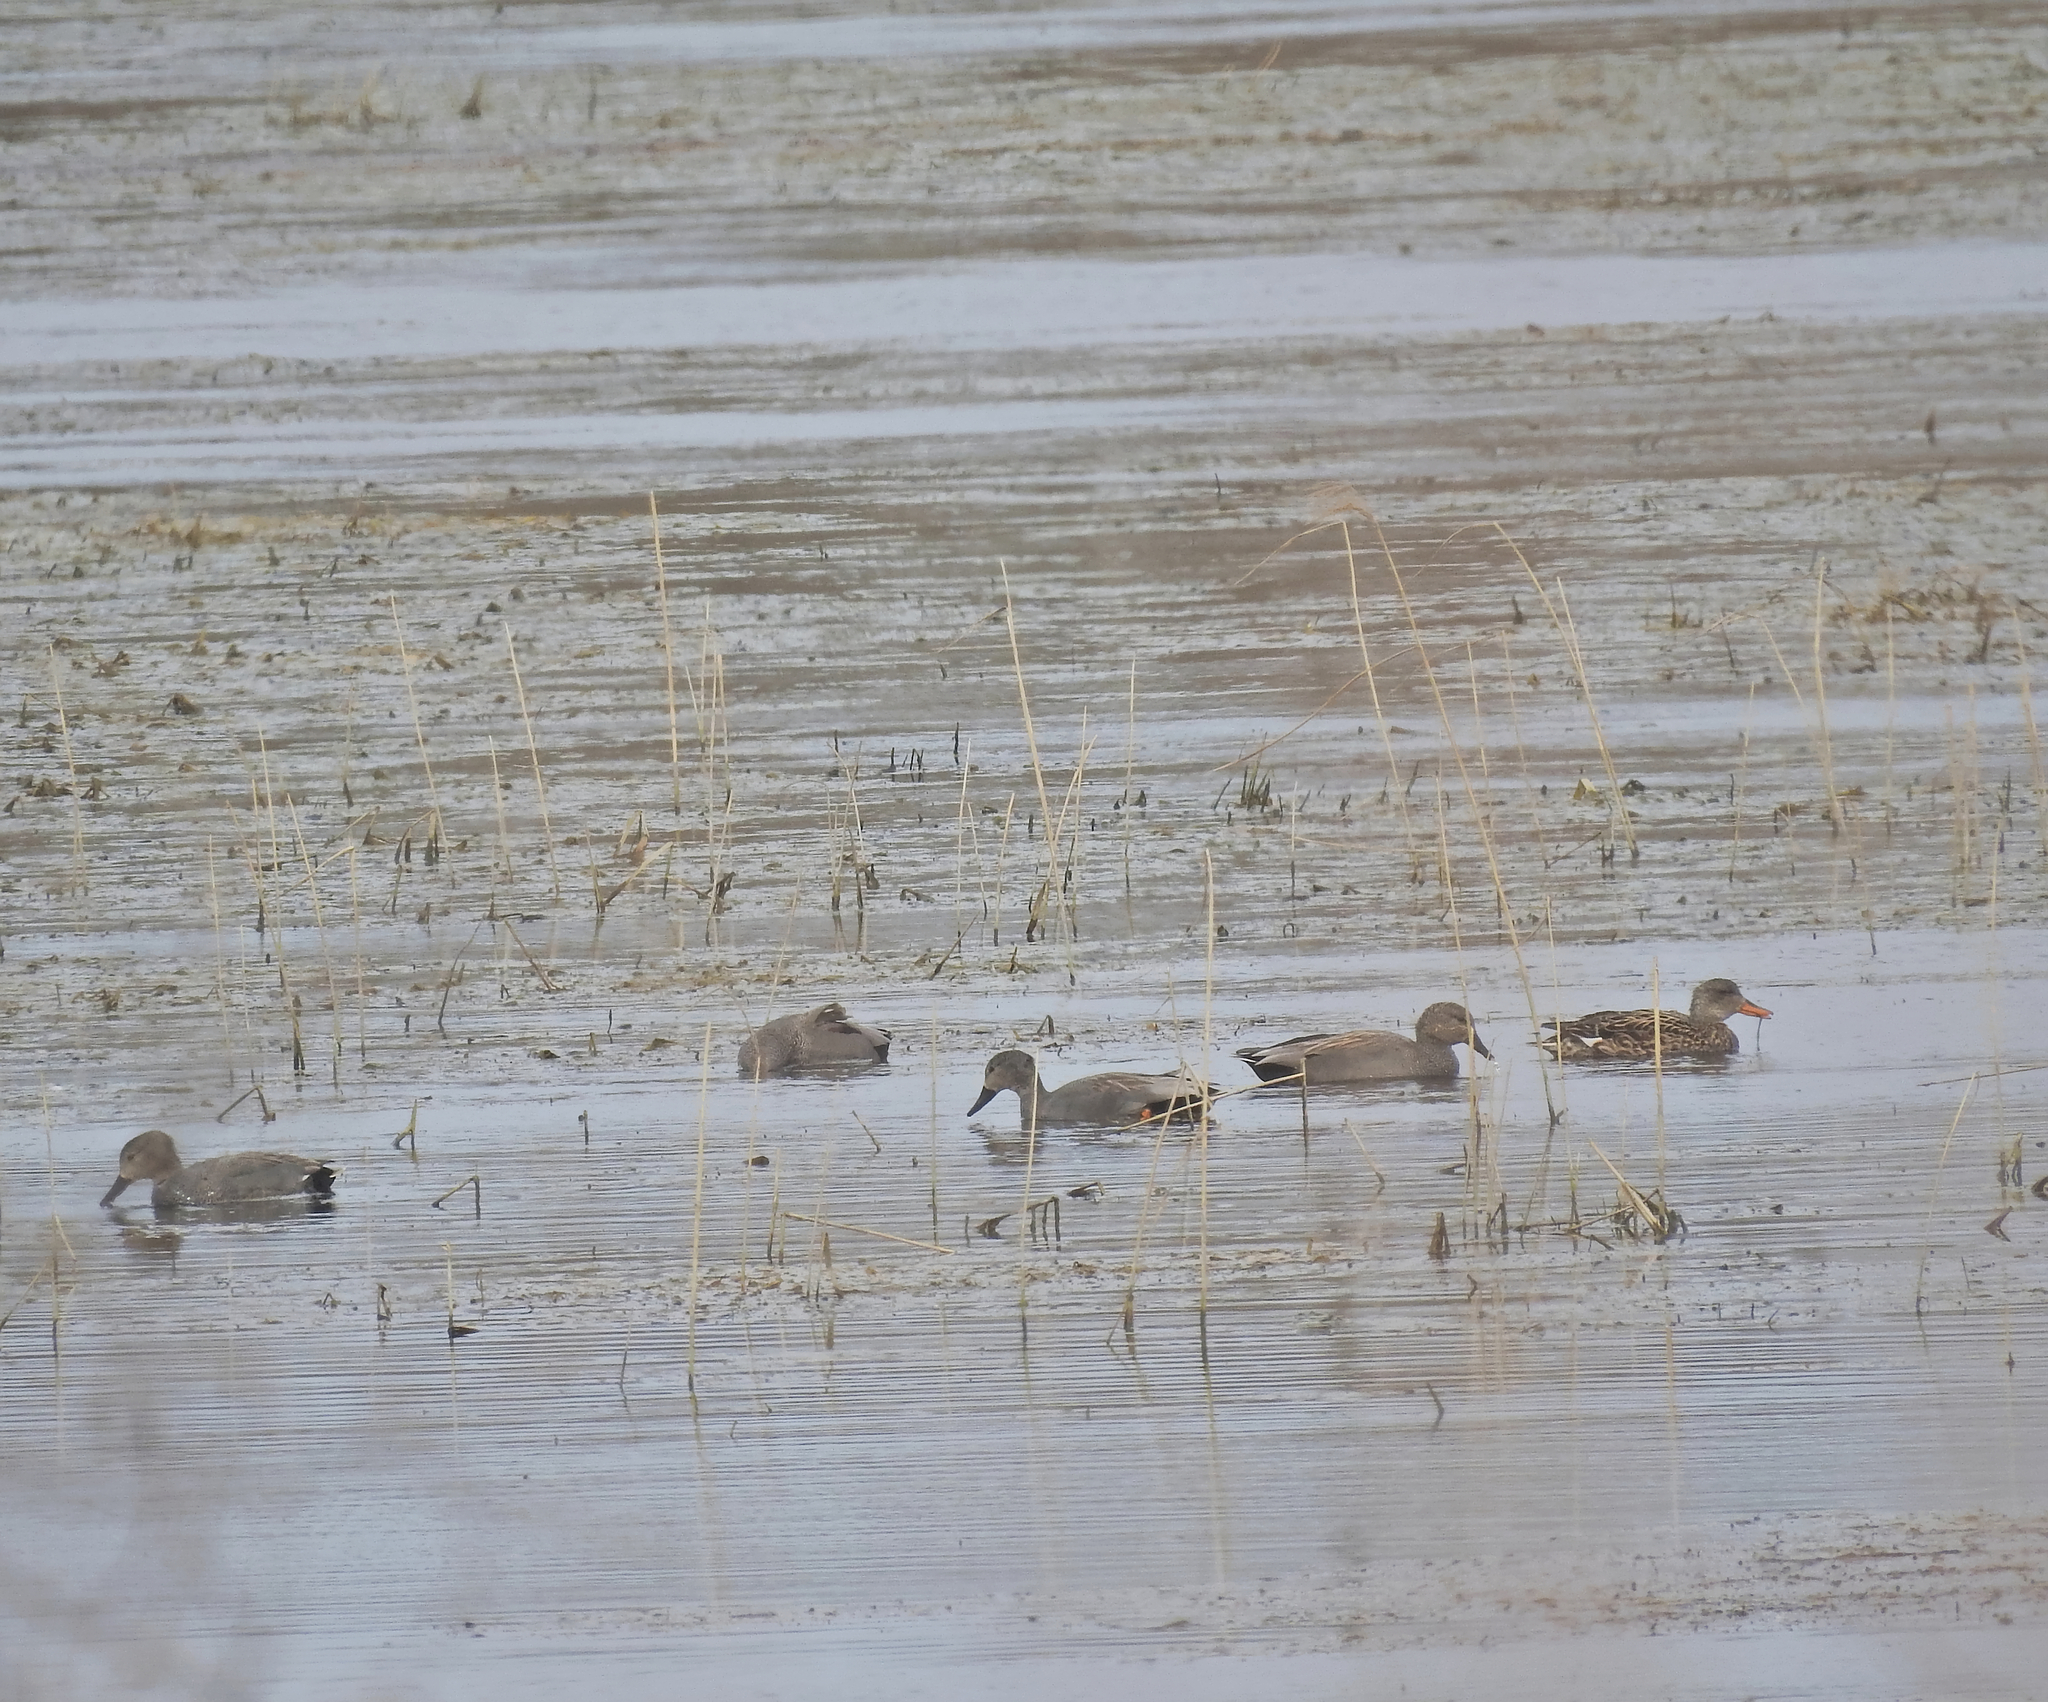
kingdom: Animalia
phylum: Chordata
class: Aves
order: Anseriformes
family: Anatidae
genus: Mareca
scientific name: Mareca strepera
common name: Gadwall
